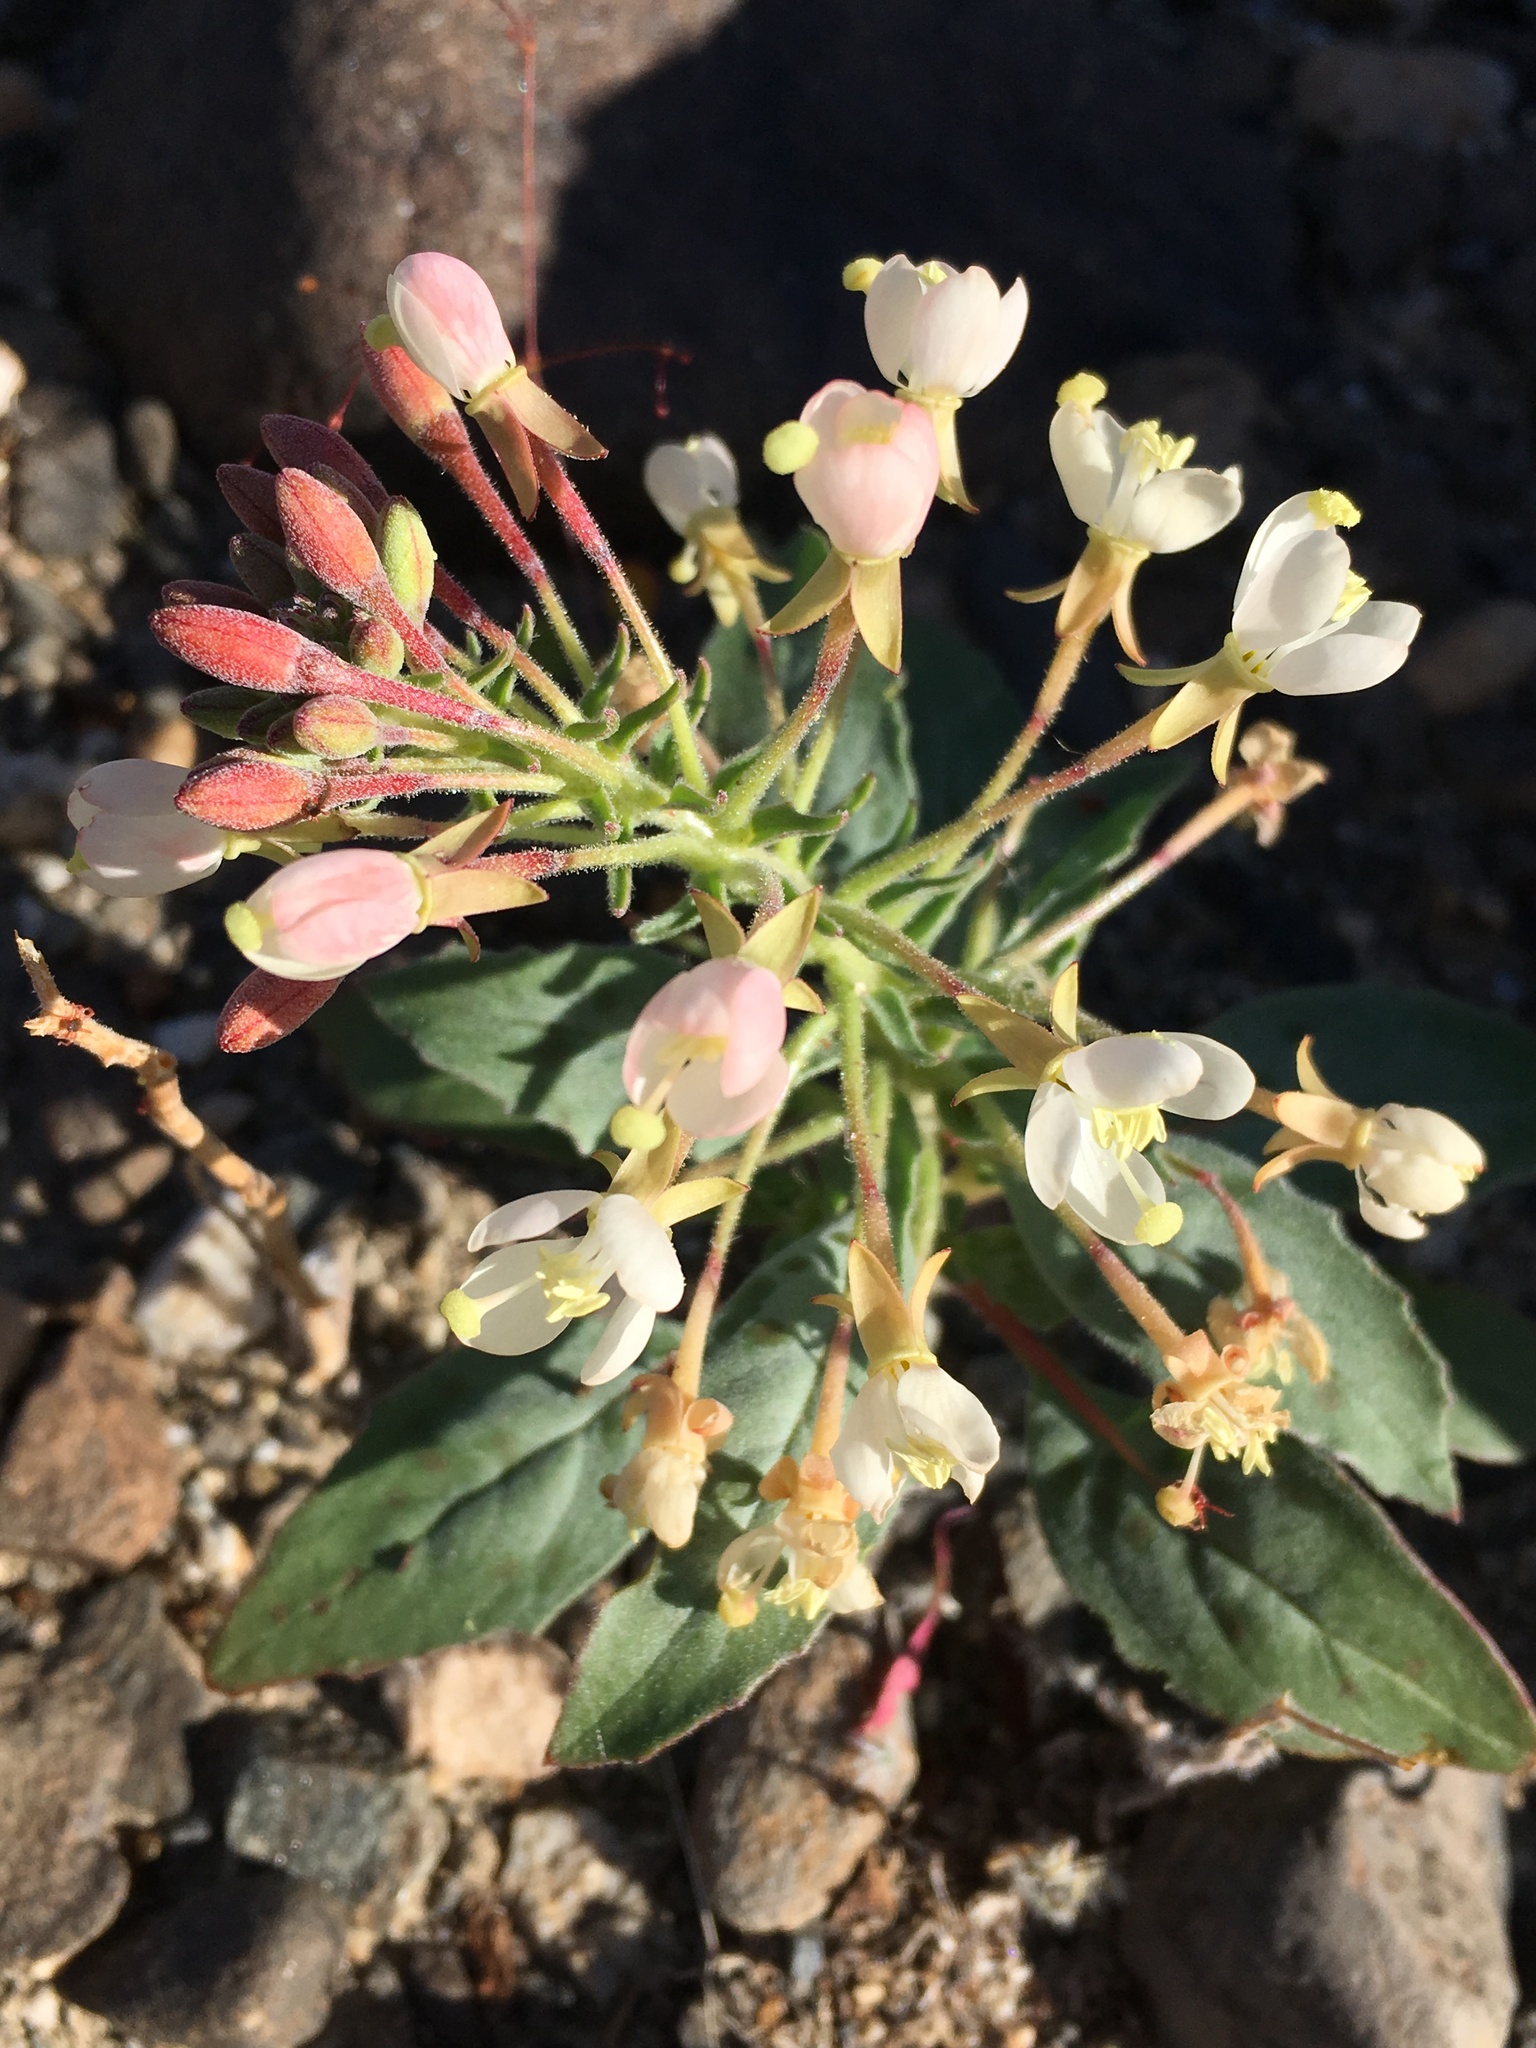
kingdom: Plantae
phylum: Tracheophyta
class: Magnoliopsida
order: Myrtales
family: Onagraceae
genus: Eremothera
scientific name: Eremothera boothii
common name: Booth's evening primrose
